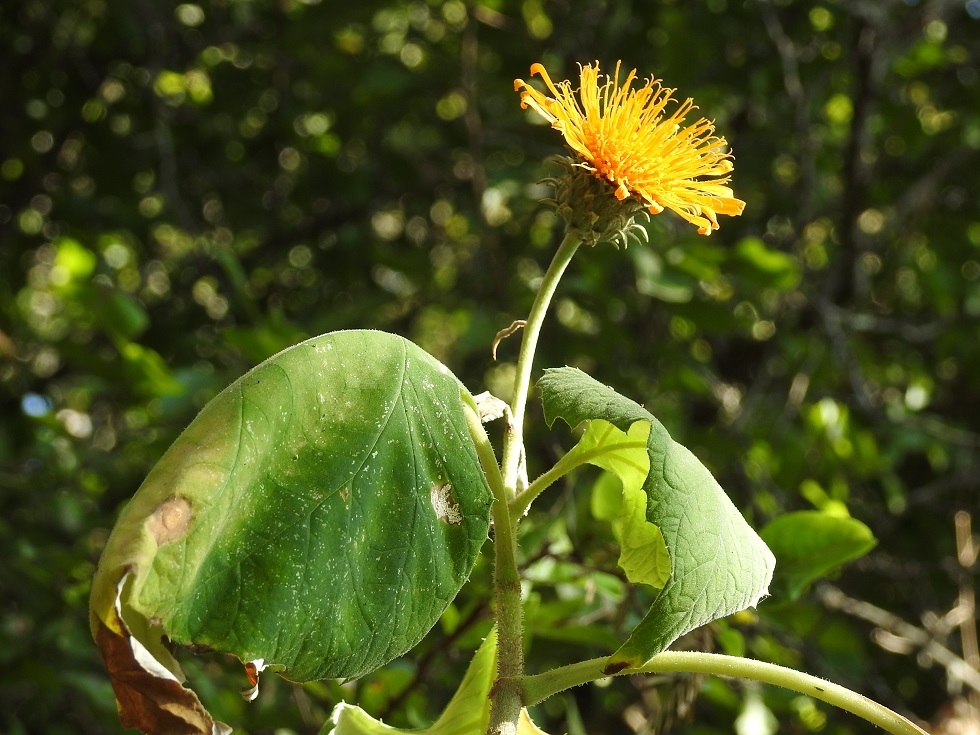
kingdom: Plantae
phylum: Tracheophyta
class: Magnoliopsida
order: Asterales
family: Asteraceae
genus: Sinclairia
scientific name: Sinclairia andrieuxii
